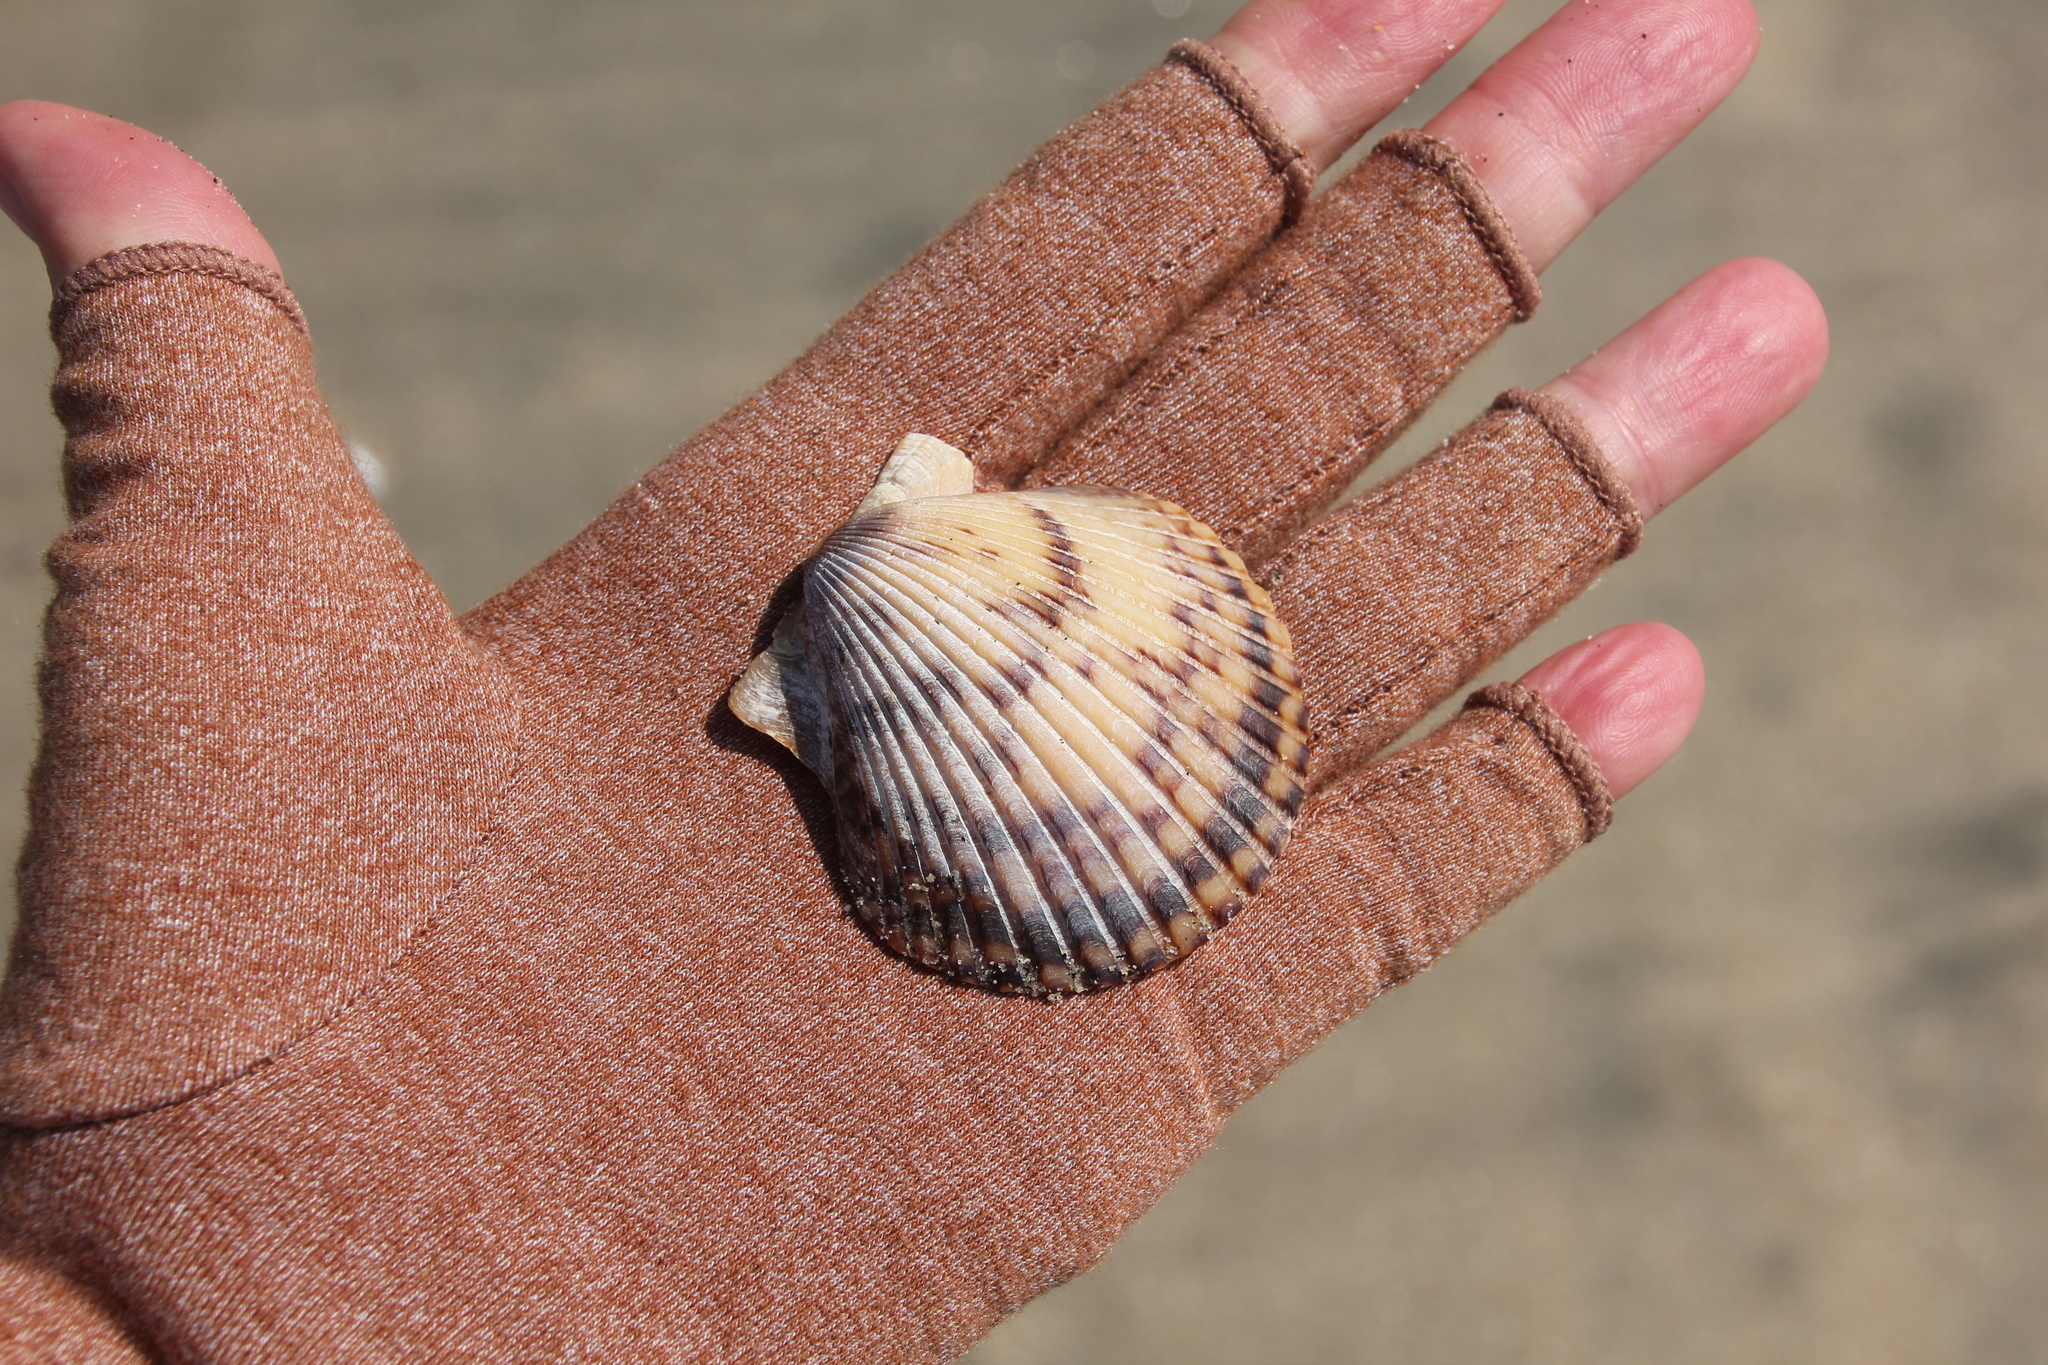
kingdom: Animalia
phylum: Mollusca
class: Bivalvia
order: Pectinida
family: Pectinidae
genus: Argopecten
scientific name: Argopecten ventricosus
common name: Catarina scallop
